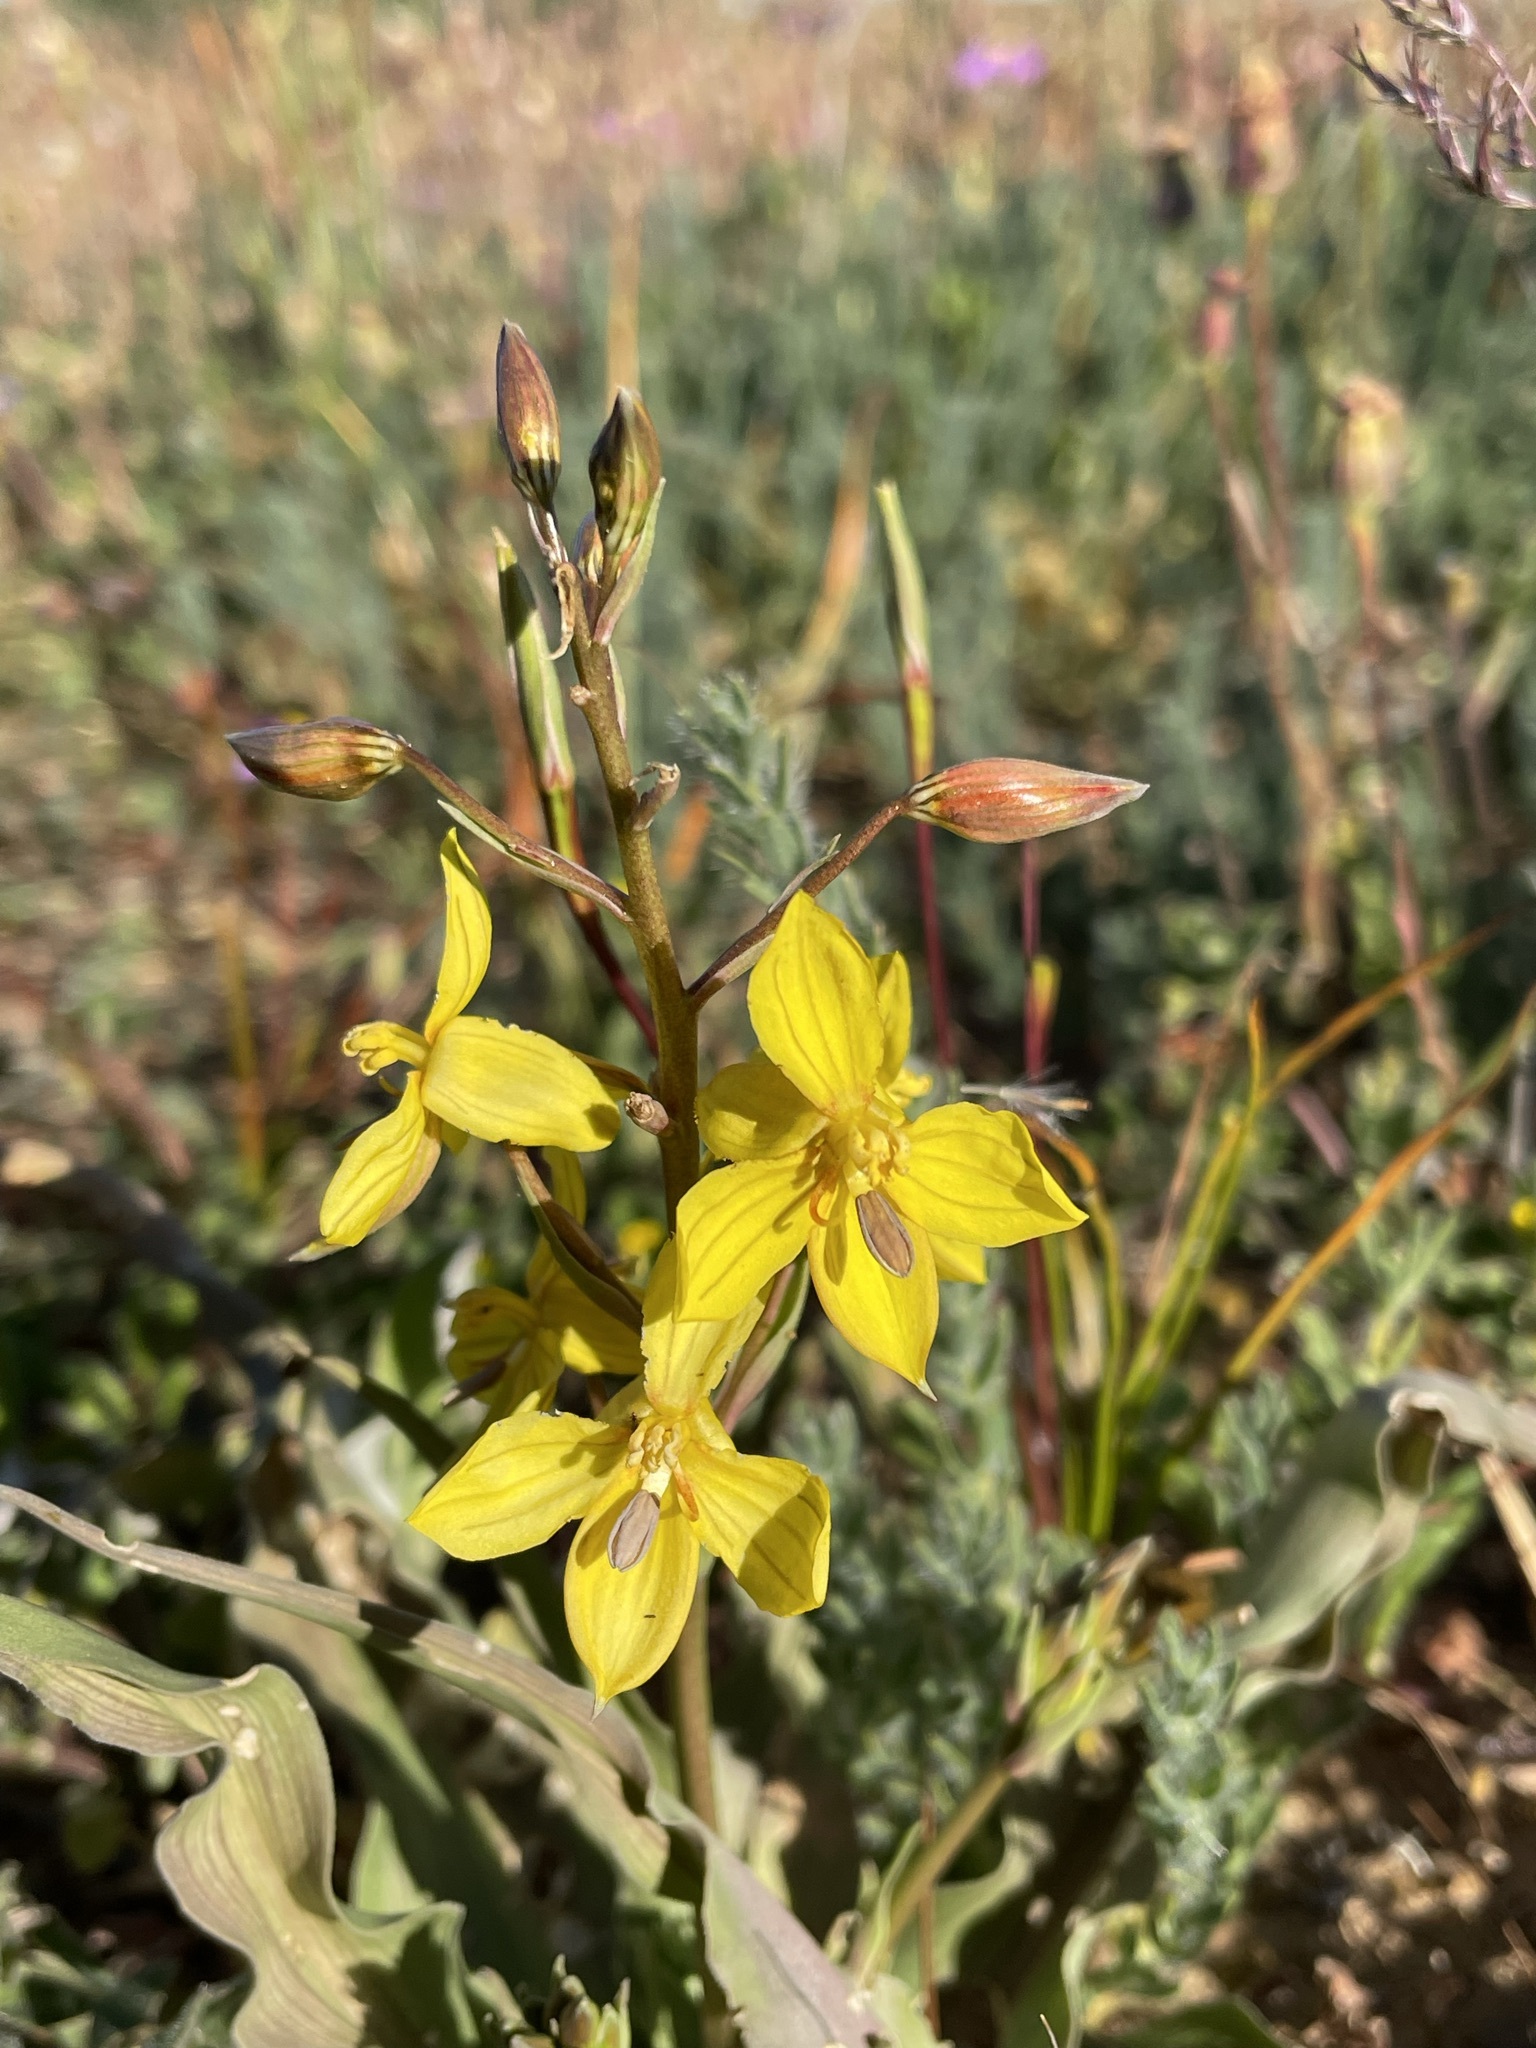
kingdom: Plantae
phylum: Tracheophyta
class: Liliopsida
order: Asparagales
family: Tecophilaeaceae
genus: Cyanella
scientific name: Cyanella lutea
